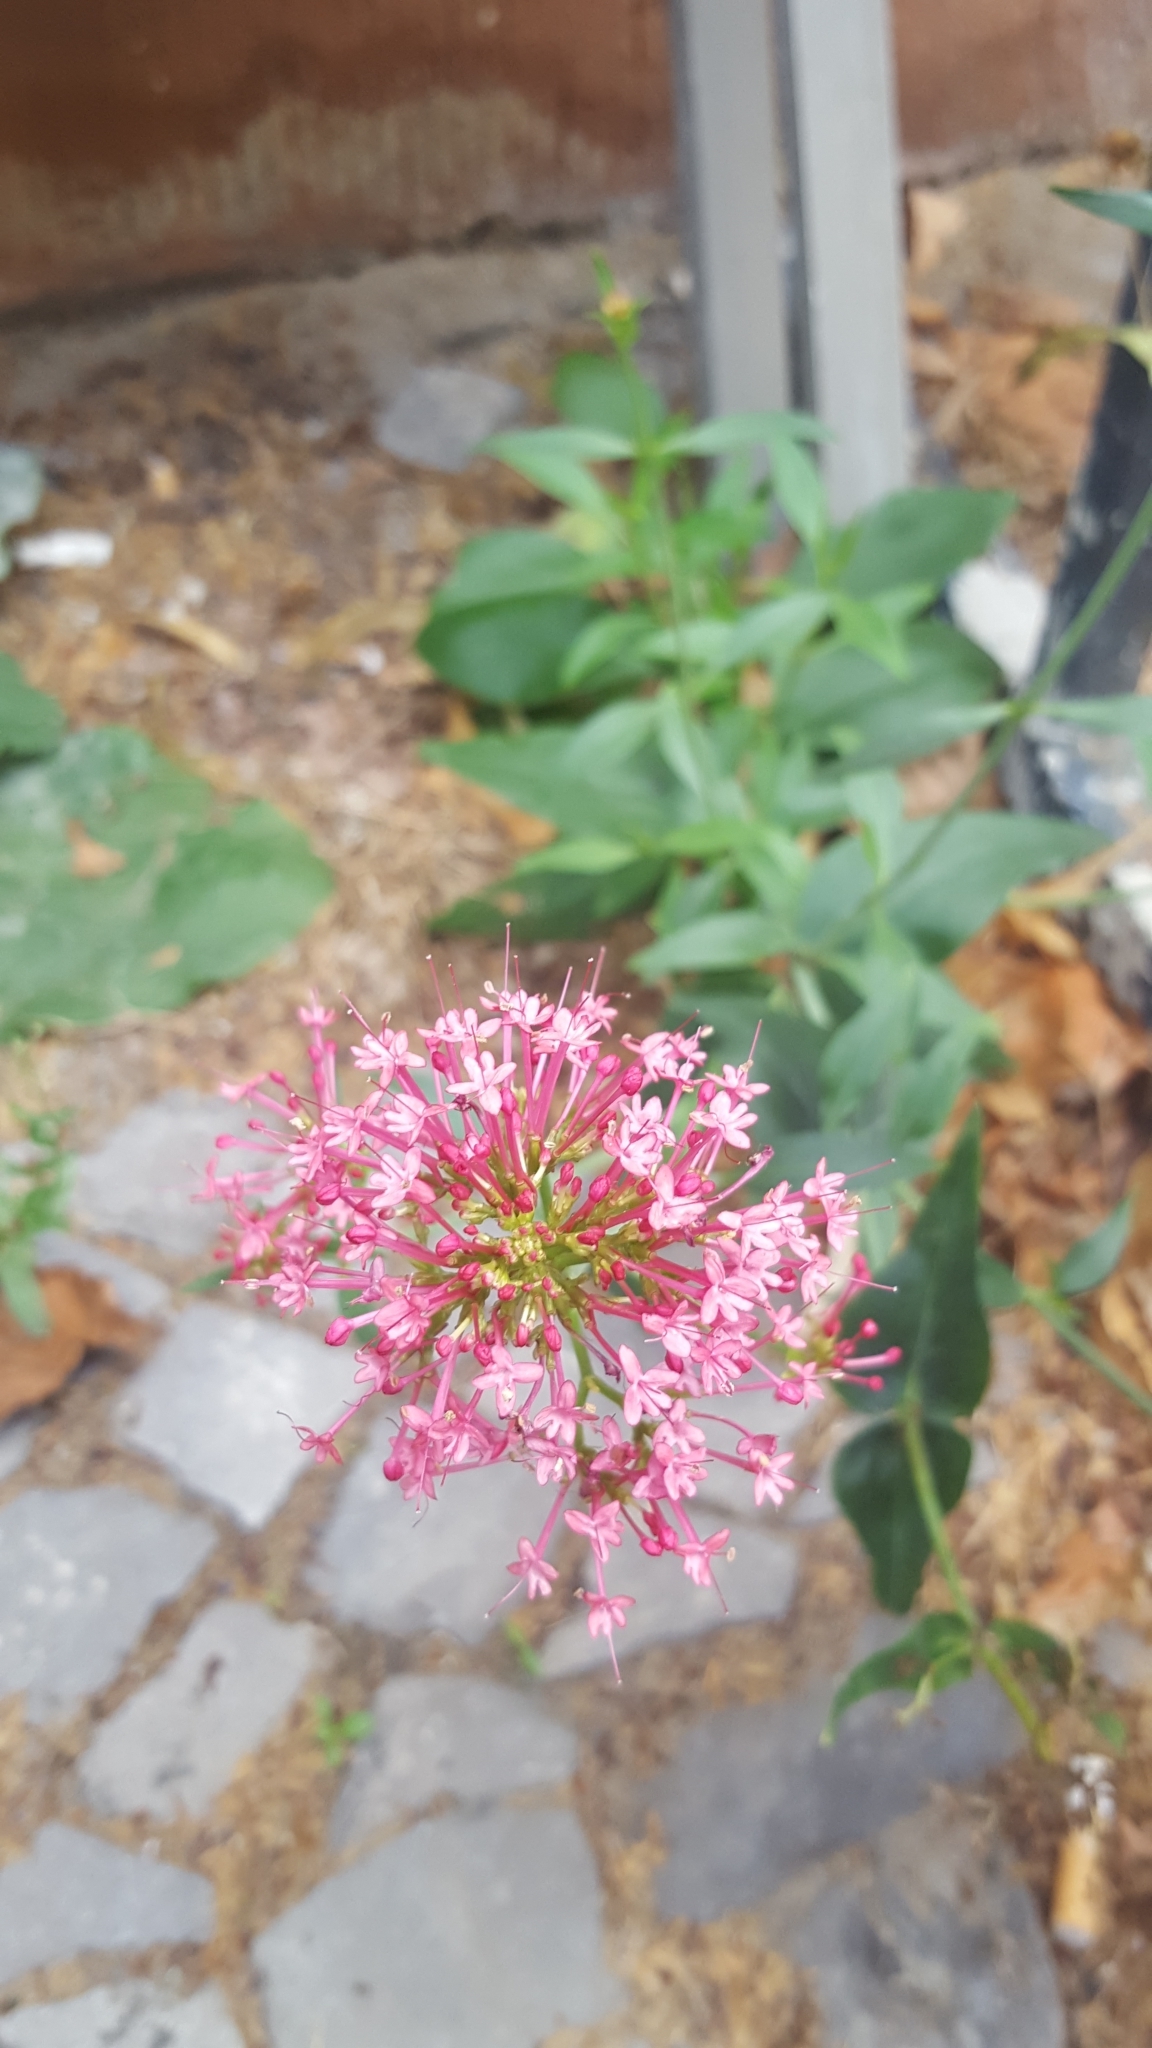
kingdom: Plantae
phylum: Tracheophyta
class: Magnoliopsida
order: Dipsacales
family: Caprifoliaceae
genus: Centranthus
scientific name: Centranthus ruber
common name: Red valerian
